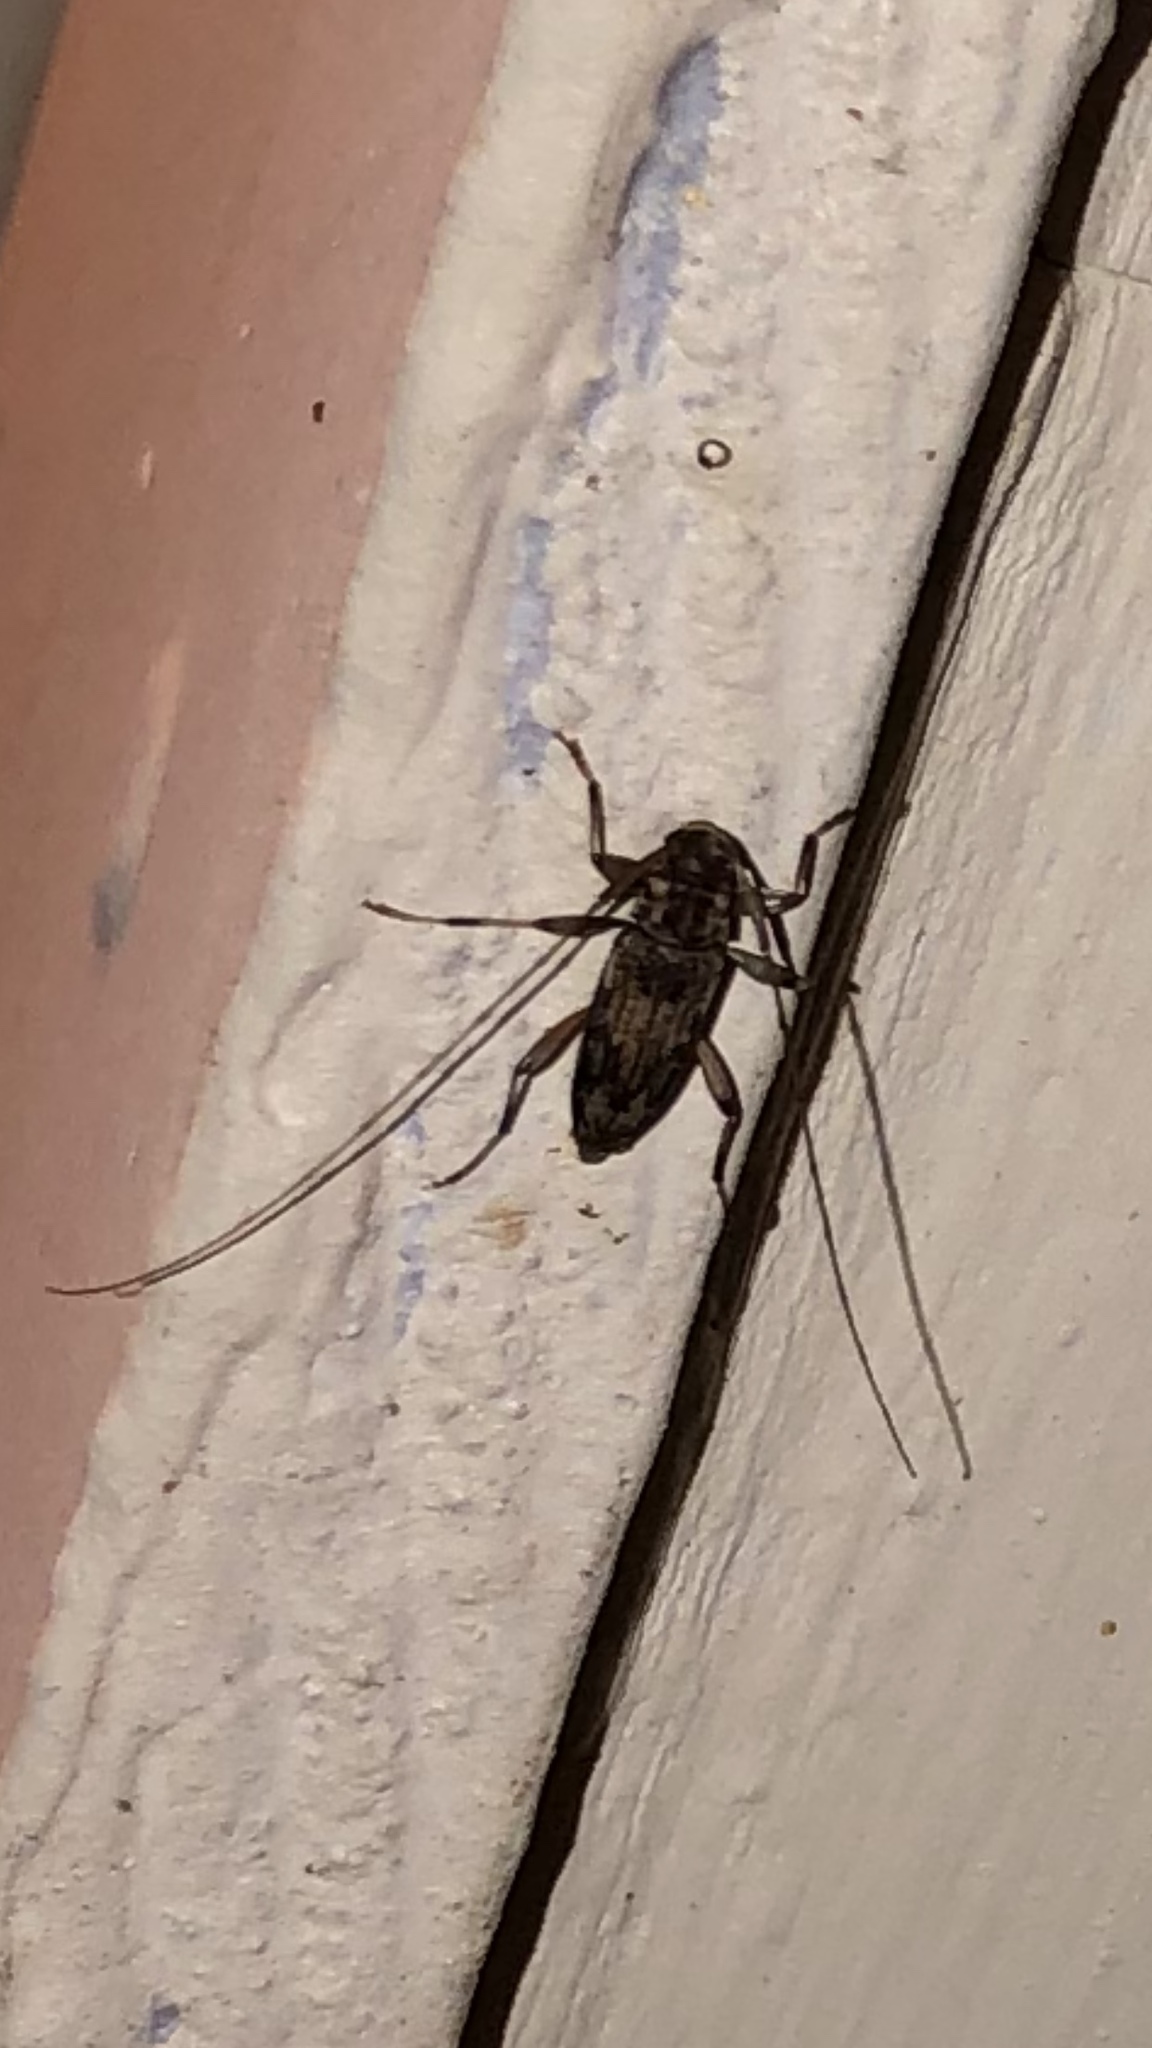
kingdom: Animalia
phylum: Arthropoda
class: Insecta
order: Coleoptera
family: Cerambycidae
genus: Lepturges
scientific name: Lepturges confluens
